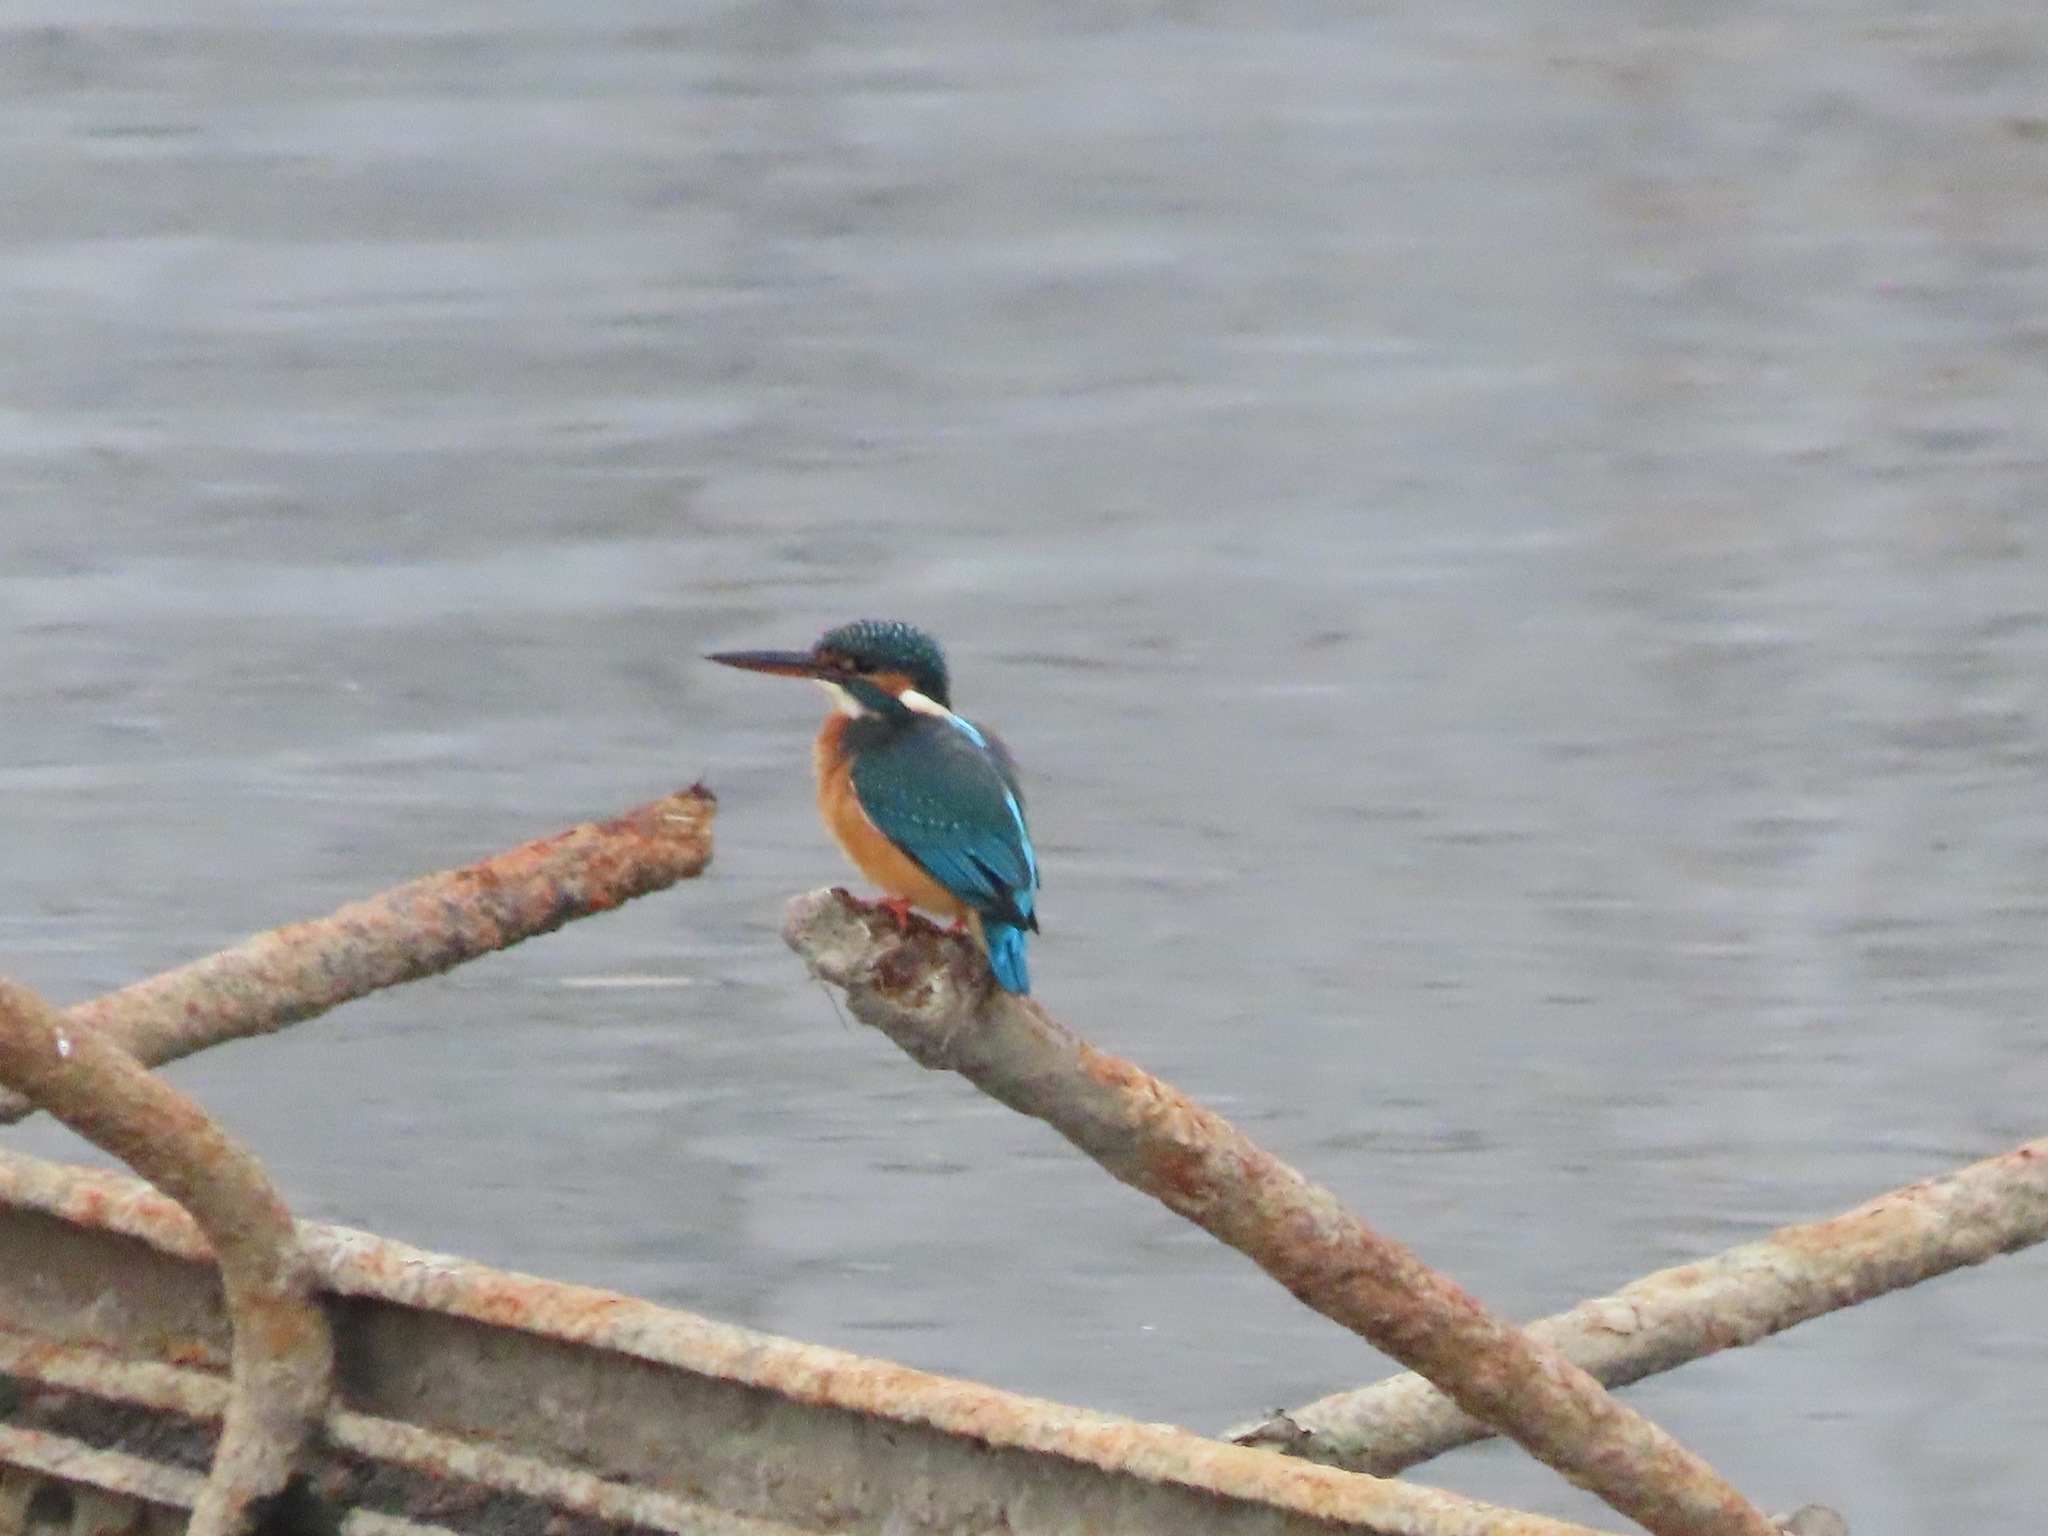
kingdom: Animalia
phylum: Chordata
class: Aves
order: Coraciiformes
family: Alcedinidae
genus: Alcedo
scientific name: Alcedo atthis
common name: Common kingfisher
